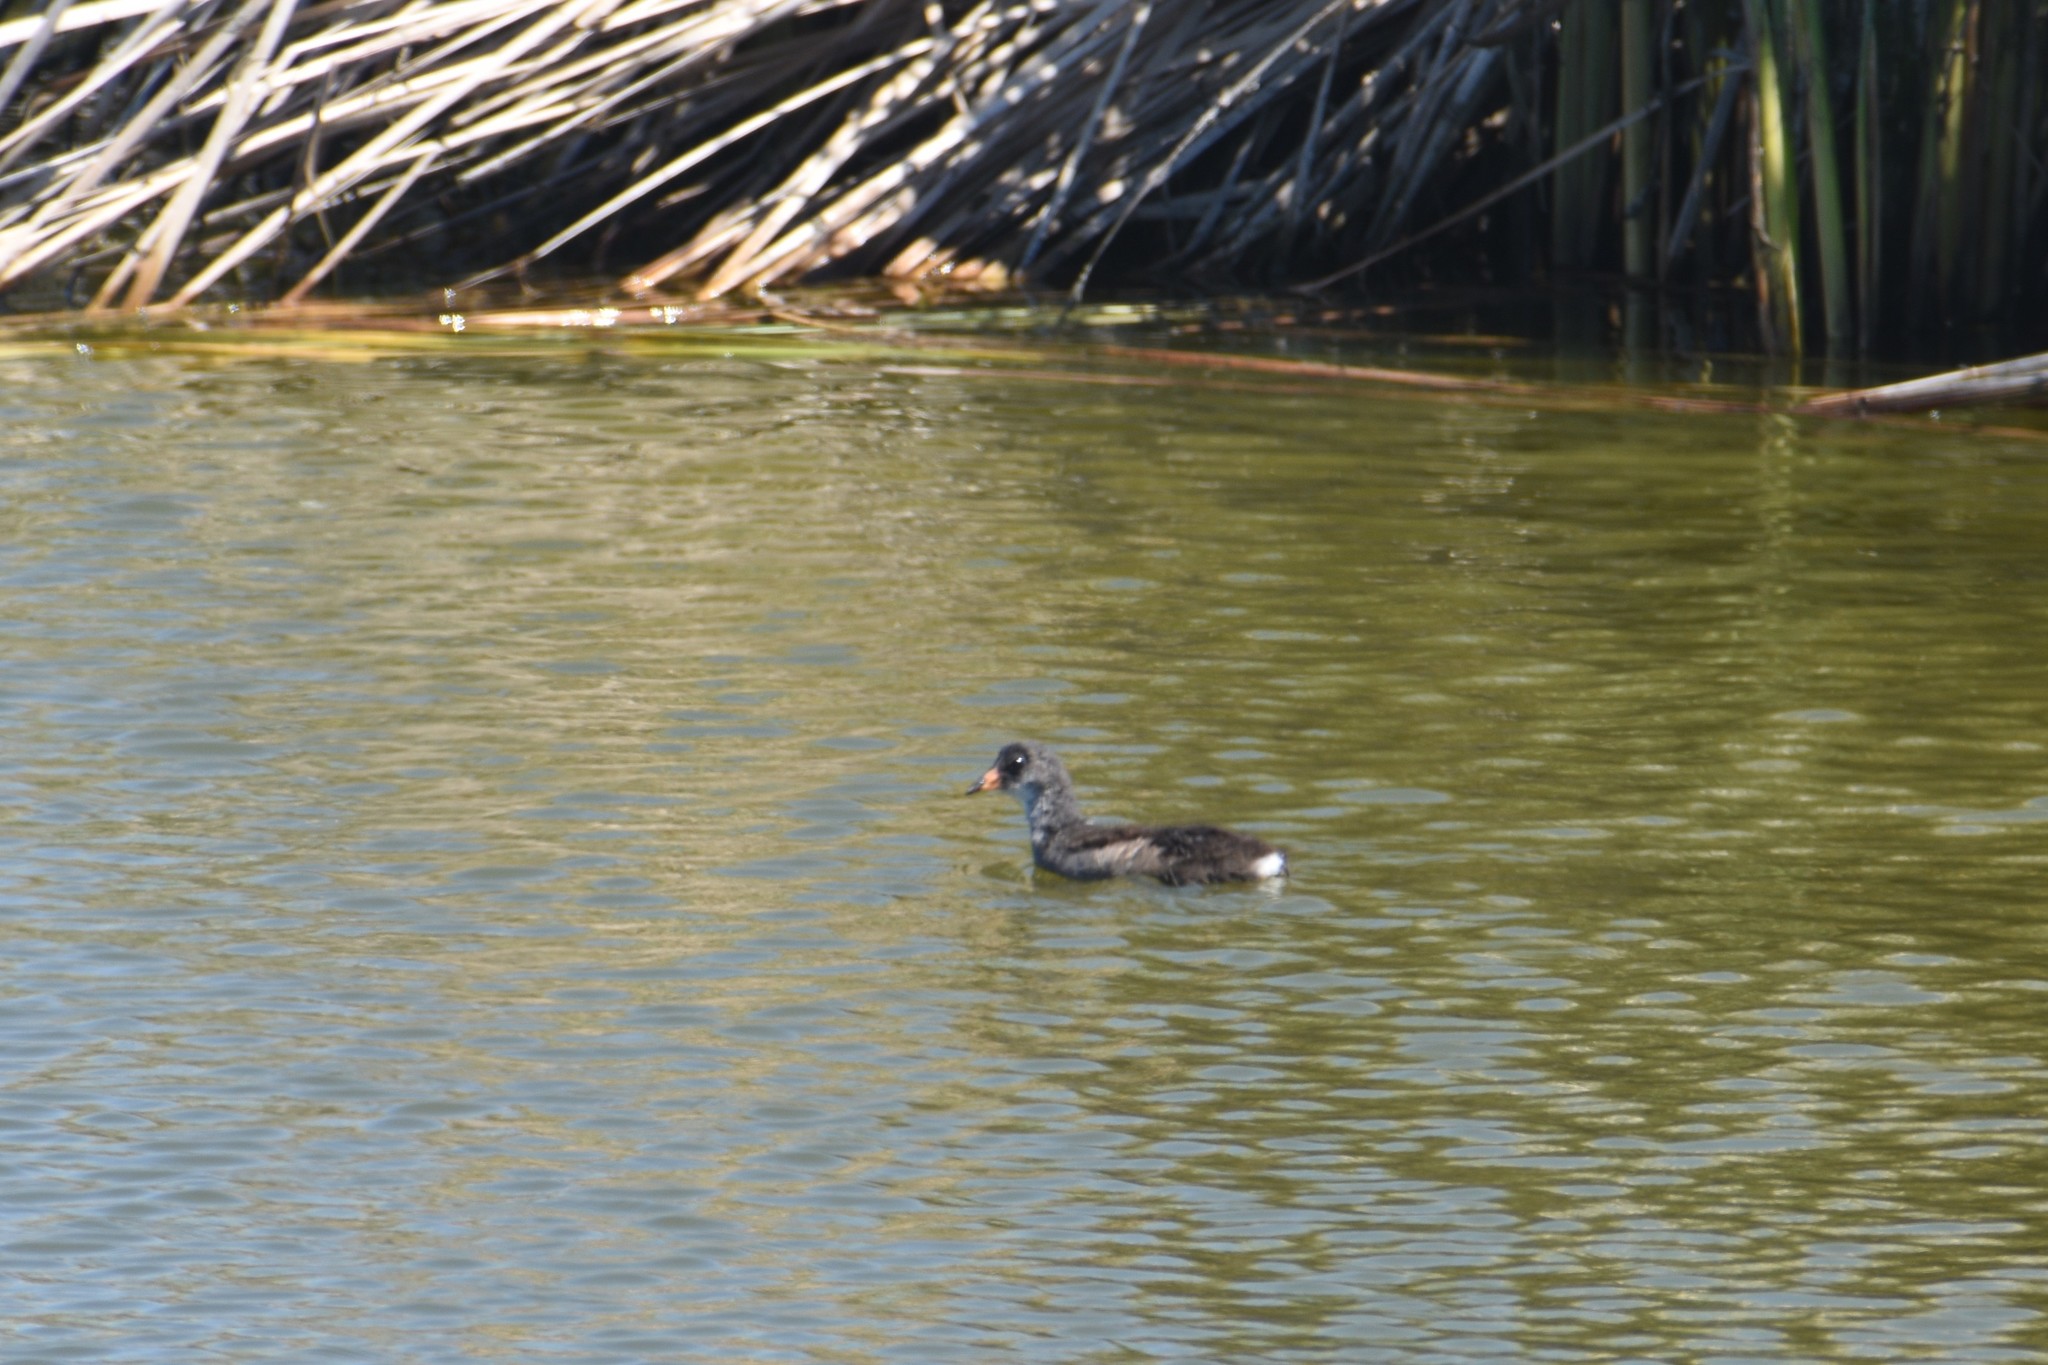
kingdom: Animalia
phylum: Chordata
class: Aves
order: Gruiformes
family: Rallidae
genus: Gallinula
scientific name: Gallinula chloropus
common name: Common moorhen
